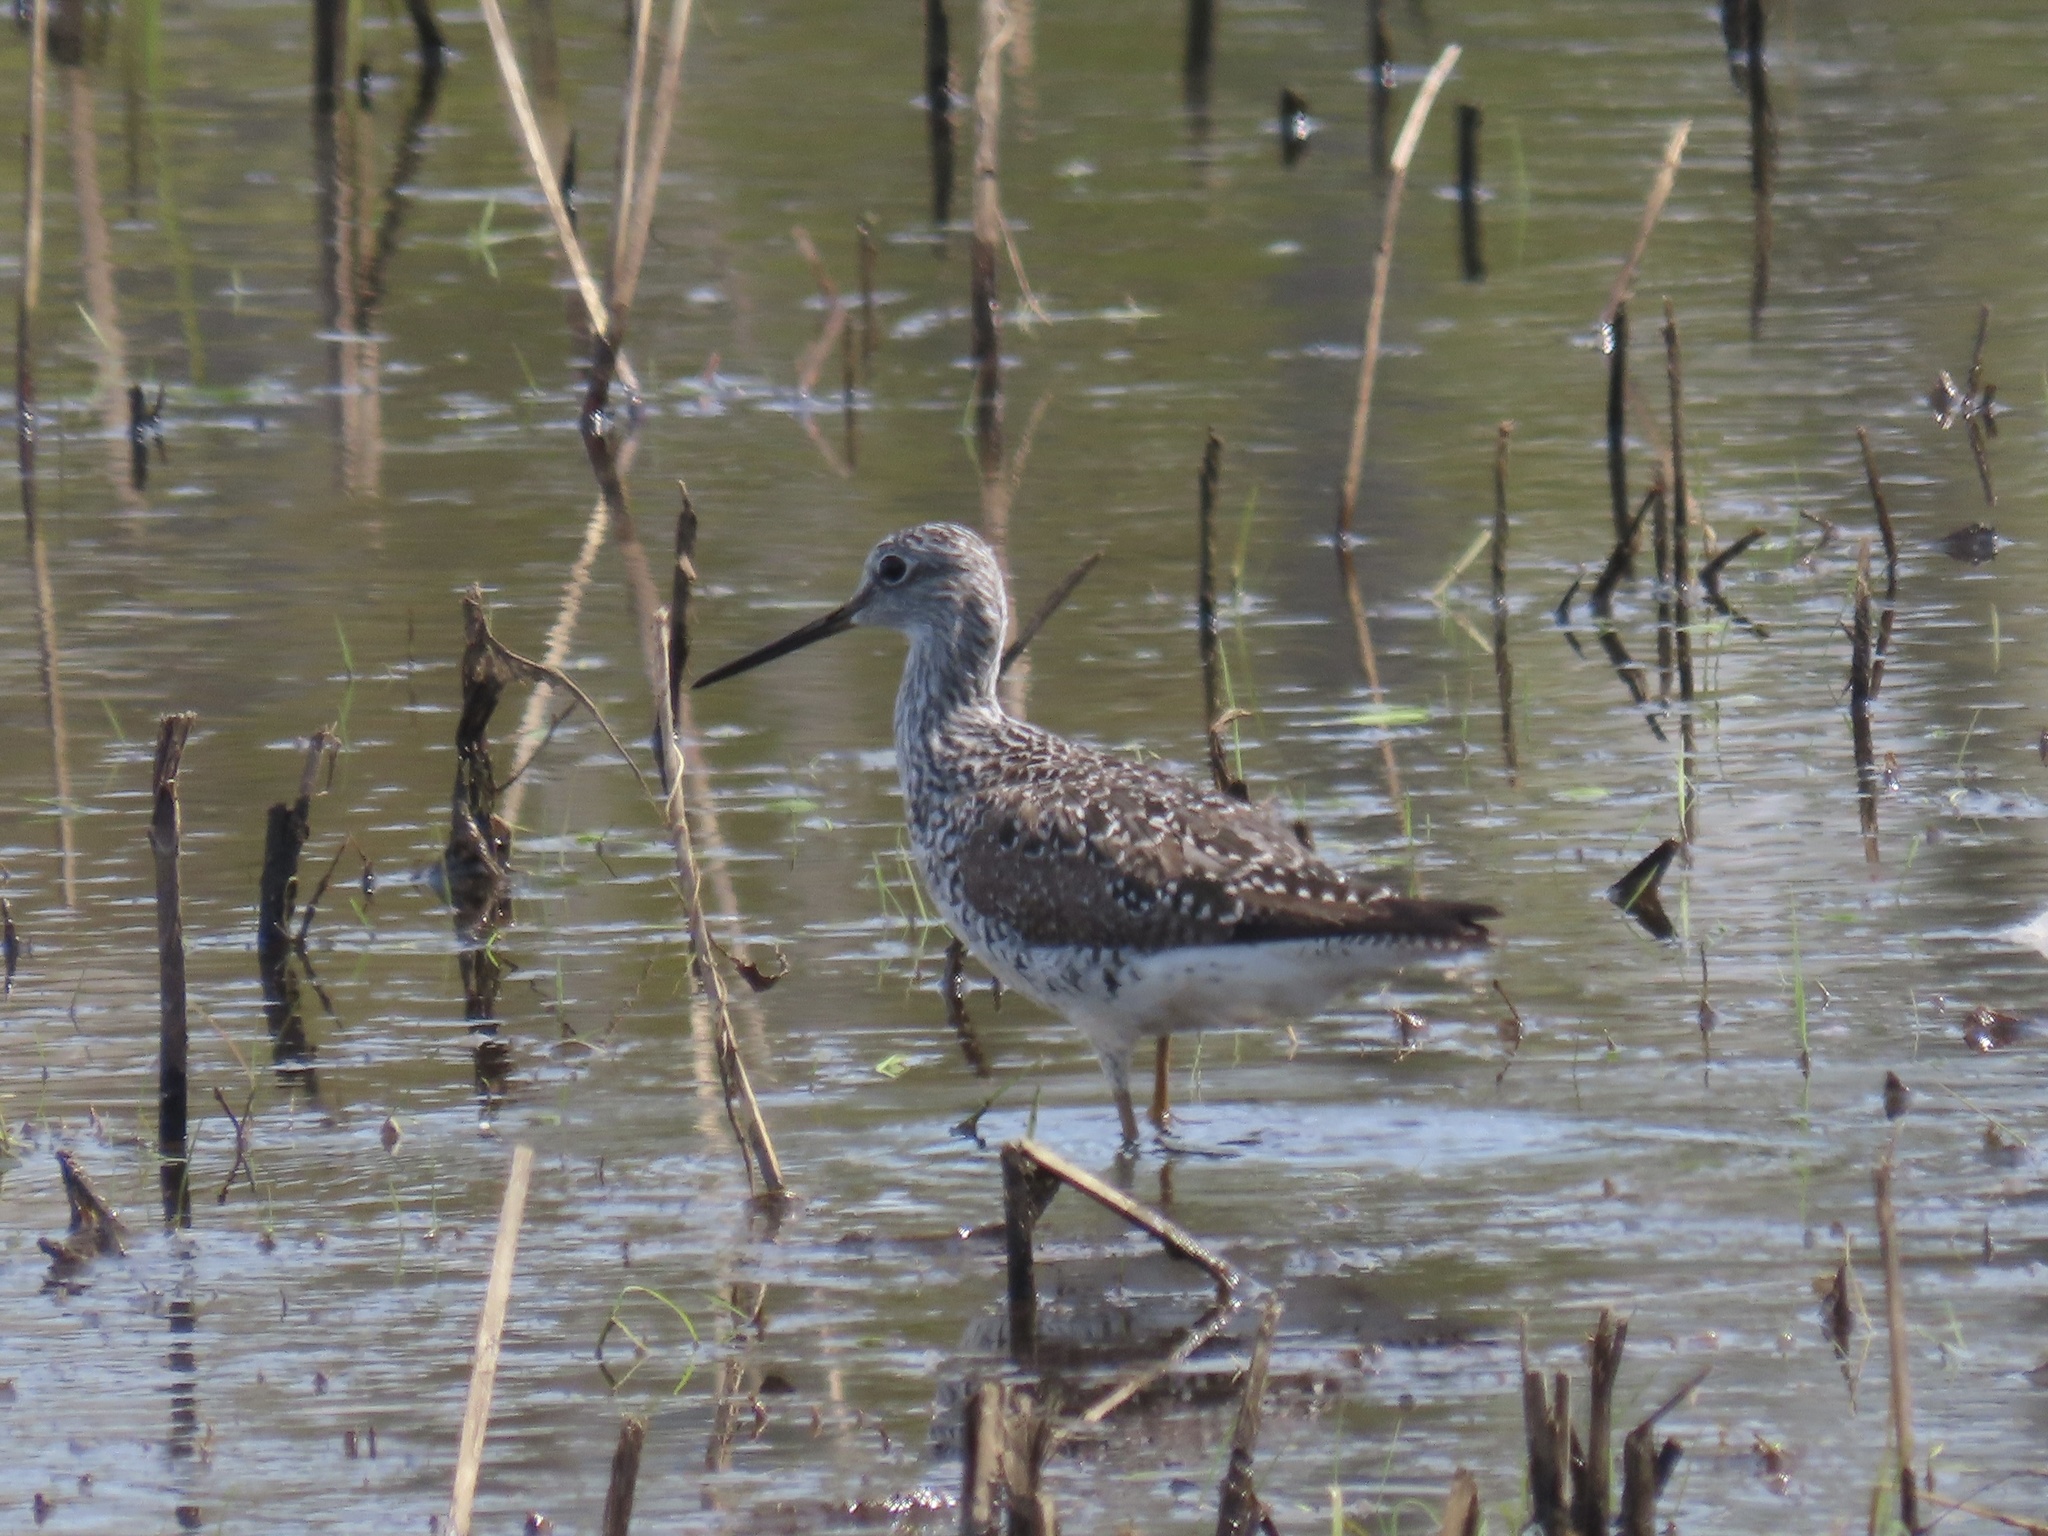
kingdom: Animalia
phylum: Chordata
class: Aves
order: Charadriiformes
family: Scolopacidae
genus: Tringa
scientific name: Tringa melanoleuca
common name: Greater yellowlegs
